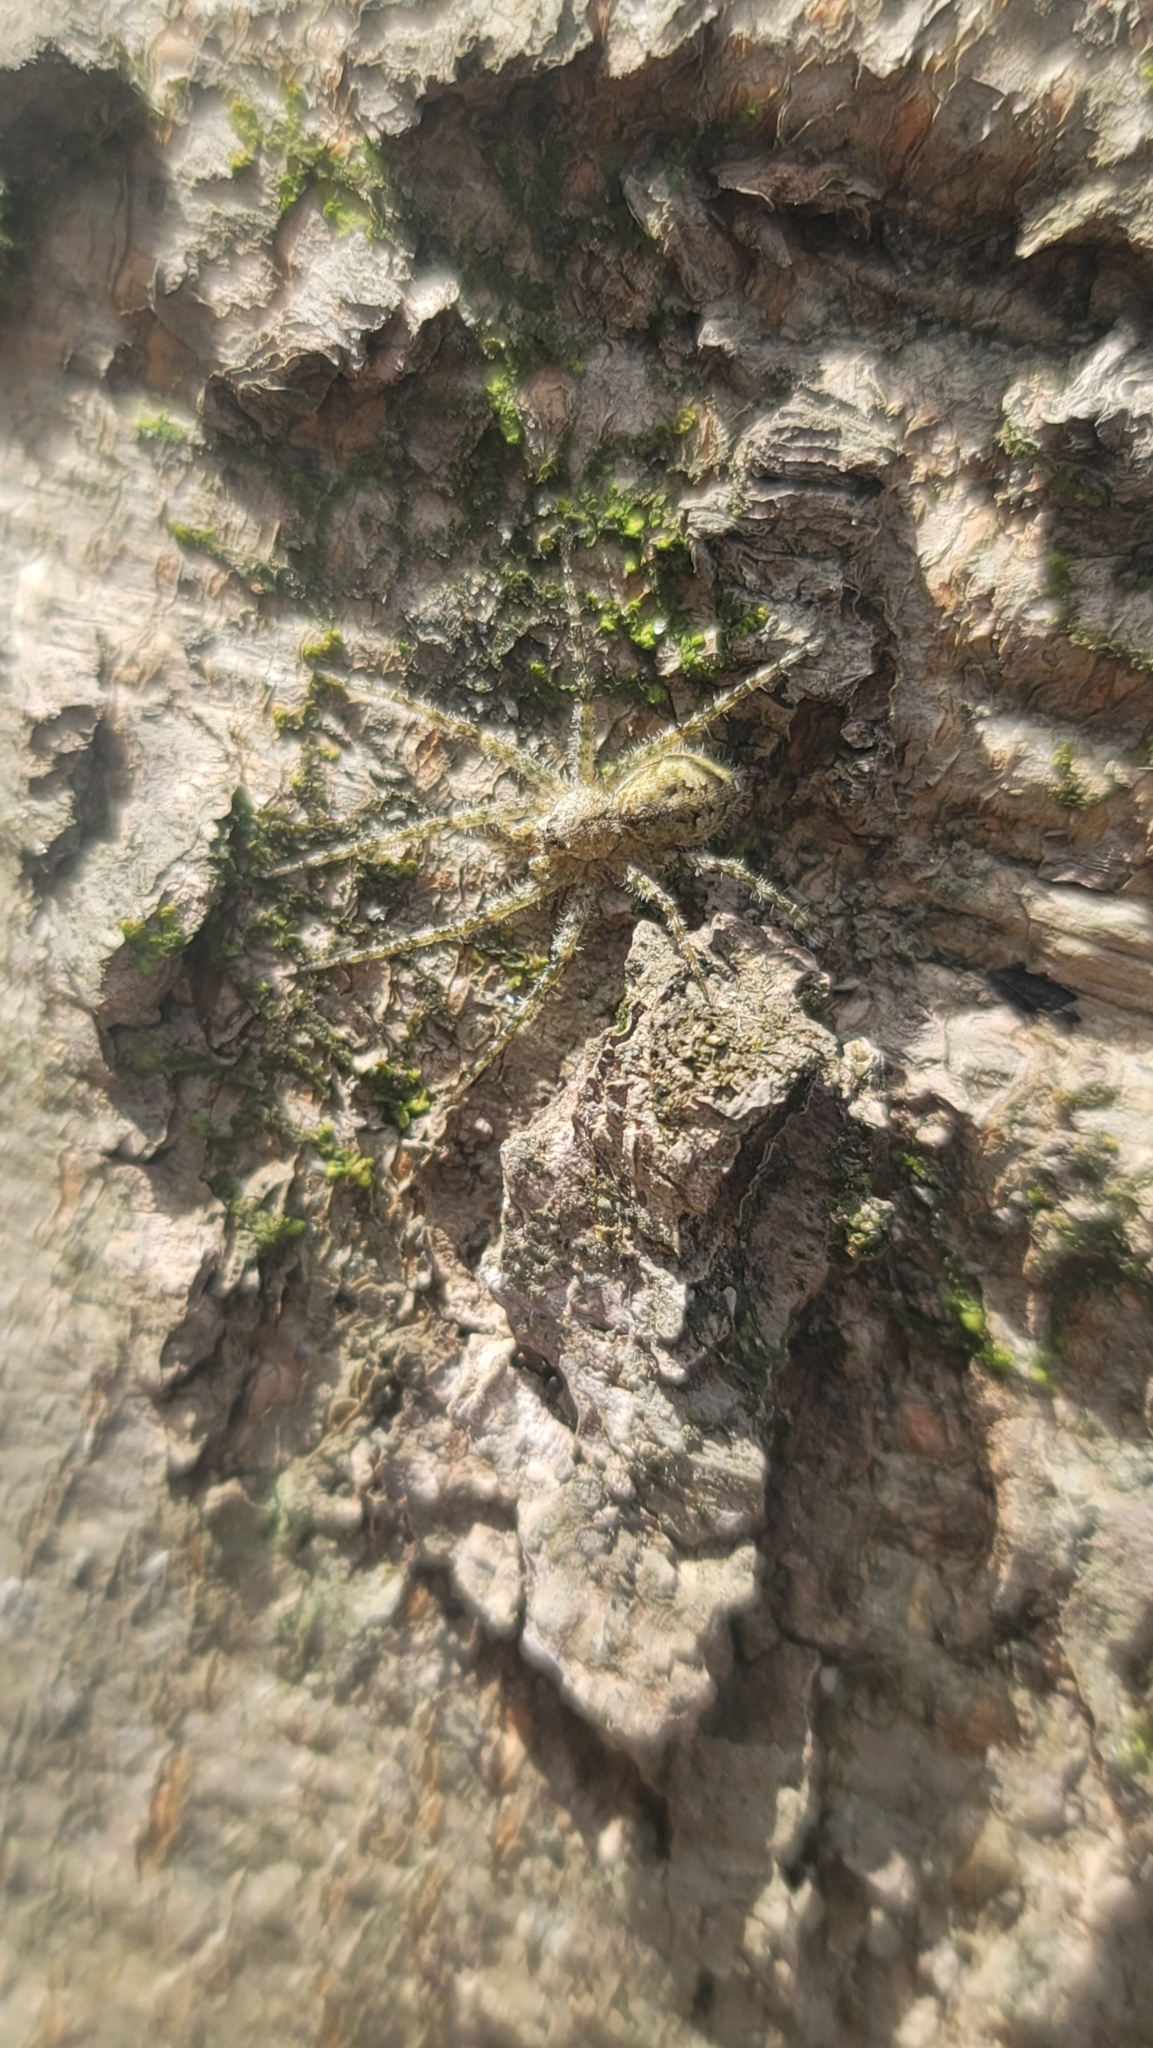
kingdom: Animalia
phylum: Arthropoda
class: Arachnida
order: Araneae
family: Pisauridae
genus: Dolomedes
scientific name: Dolomedes albineus
